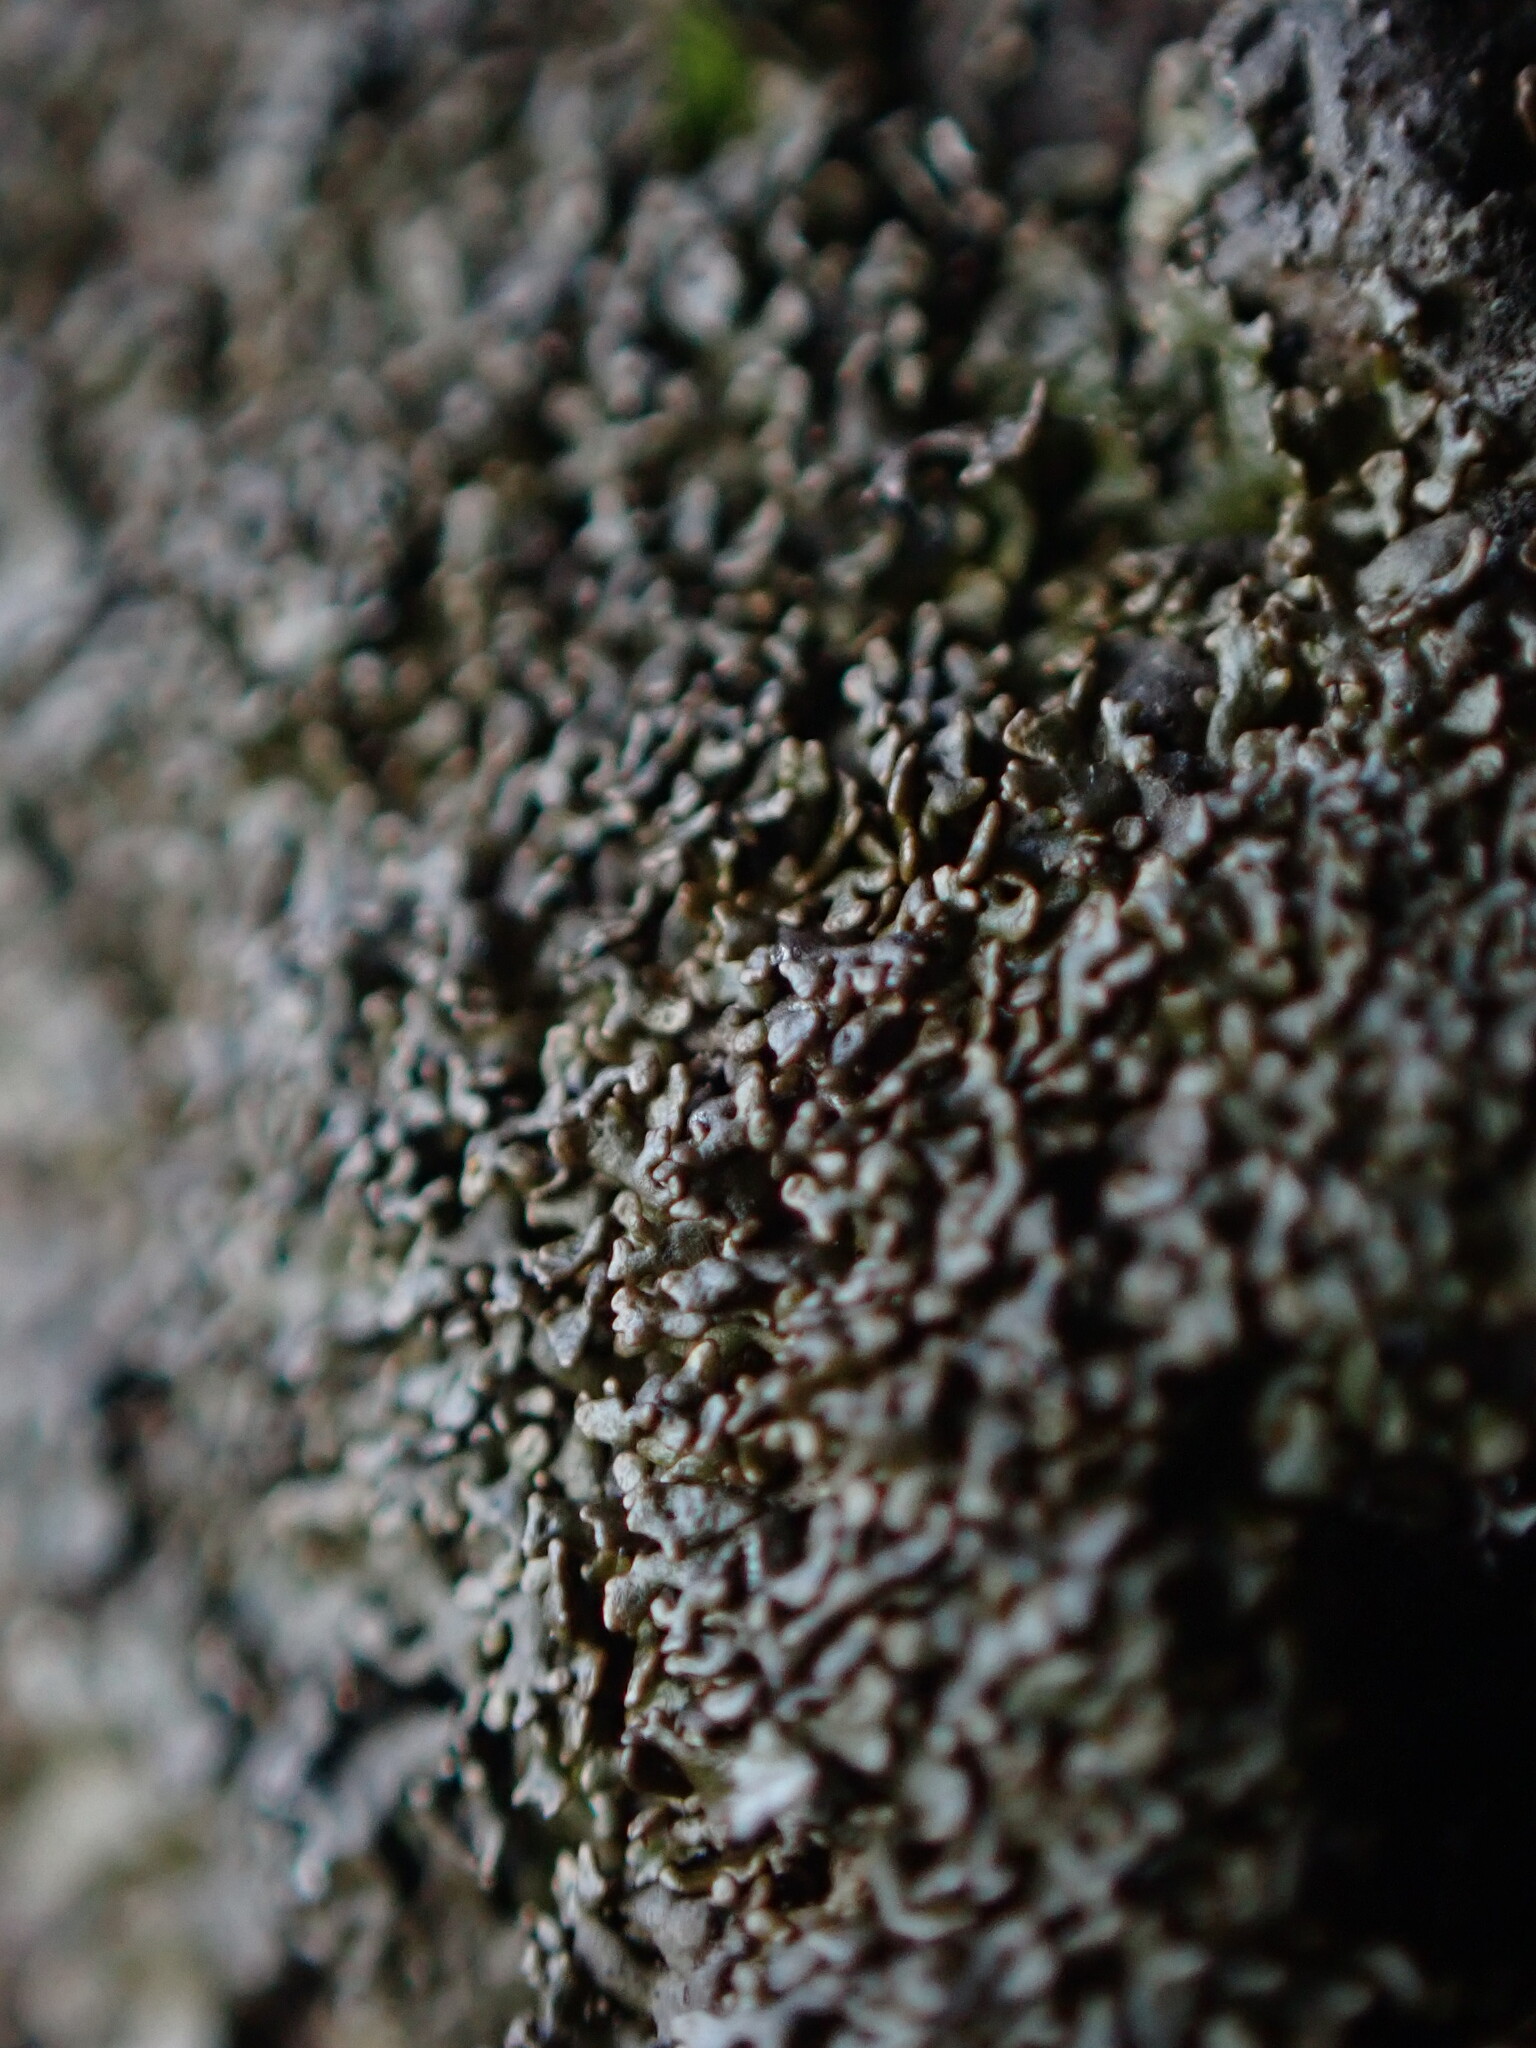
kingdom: Fungi
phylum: Ascomycota
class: Lecanoromycetes
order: Lecanorales
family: Parmeliaceae
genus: Montanelia
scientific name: Montanelia panniformis
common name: Shingled camouflage lichen
